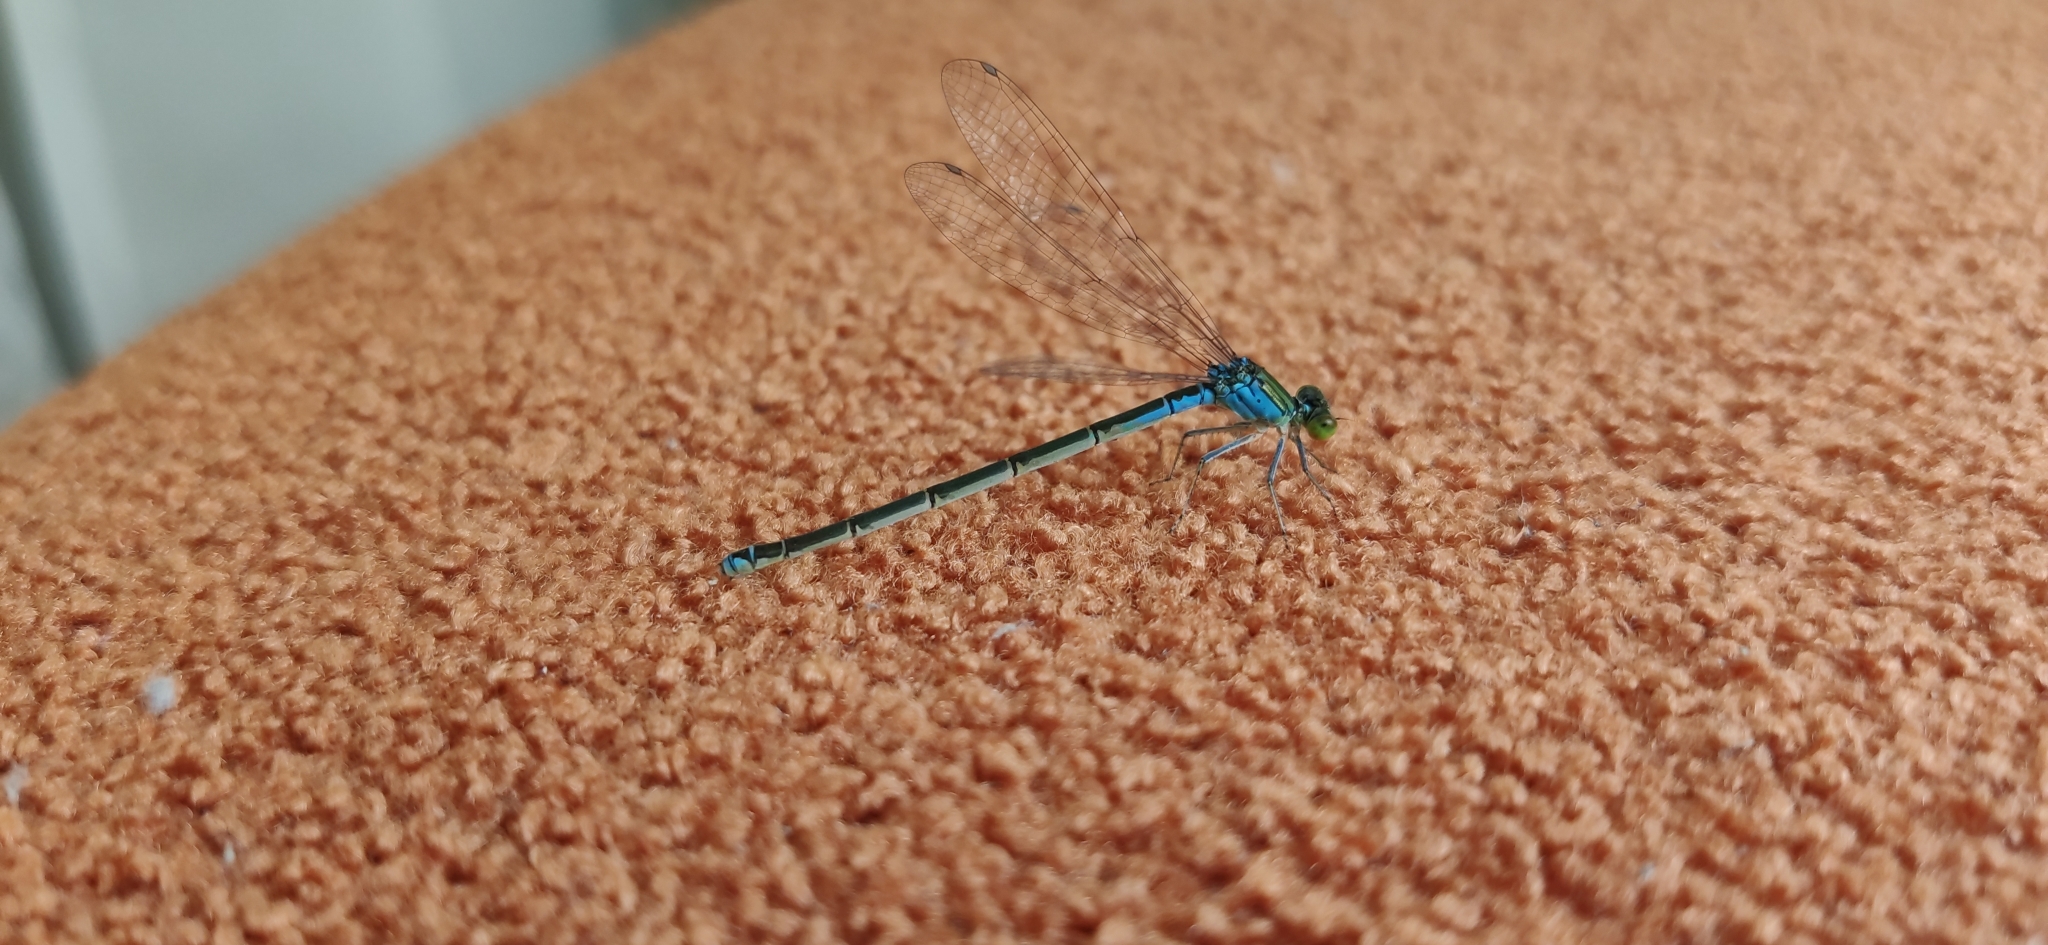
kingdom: Animalia
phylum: Arthropoda
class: Insecta
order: Odonata
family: Coenagrionidae
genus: Erythromma
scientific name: Erythromma viridulum
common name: Small red-eyed damselfly
